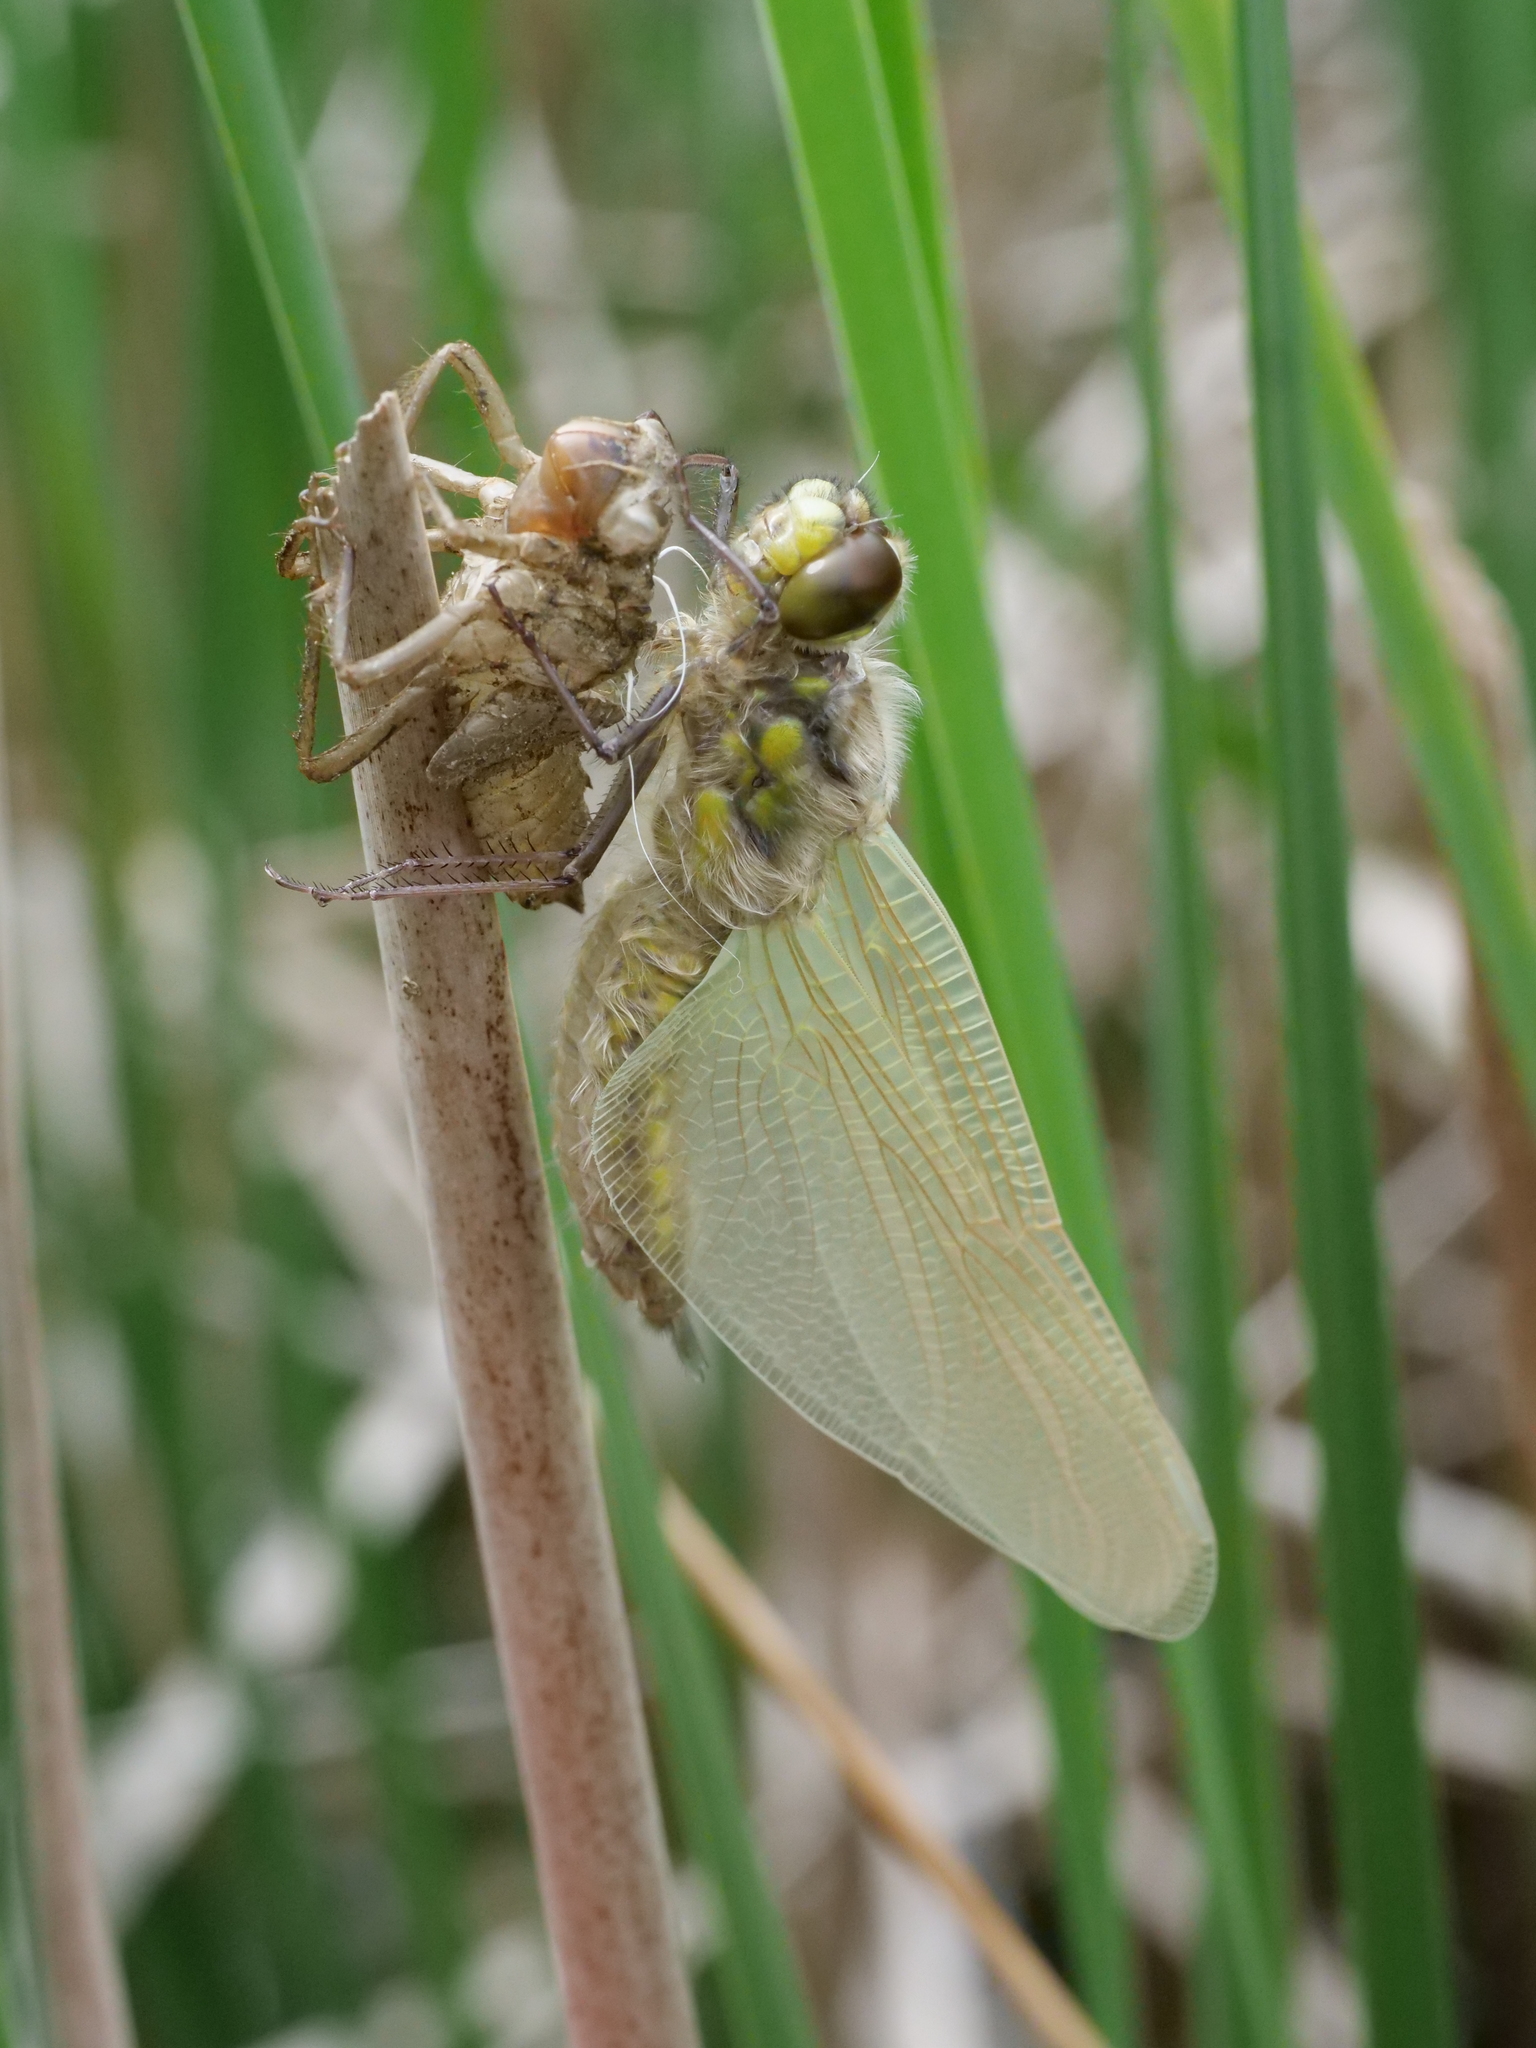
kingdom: Animalia
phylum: Arthropoda
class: Insecta
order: Odonata
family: Libellulidae
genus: Libellula
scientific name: Libellula quadrimaculata
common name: Four-spotted chaser
